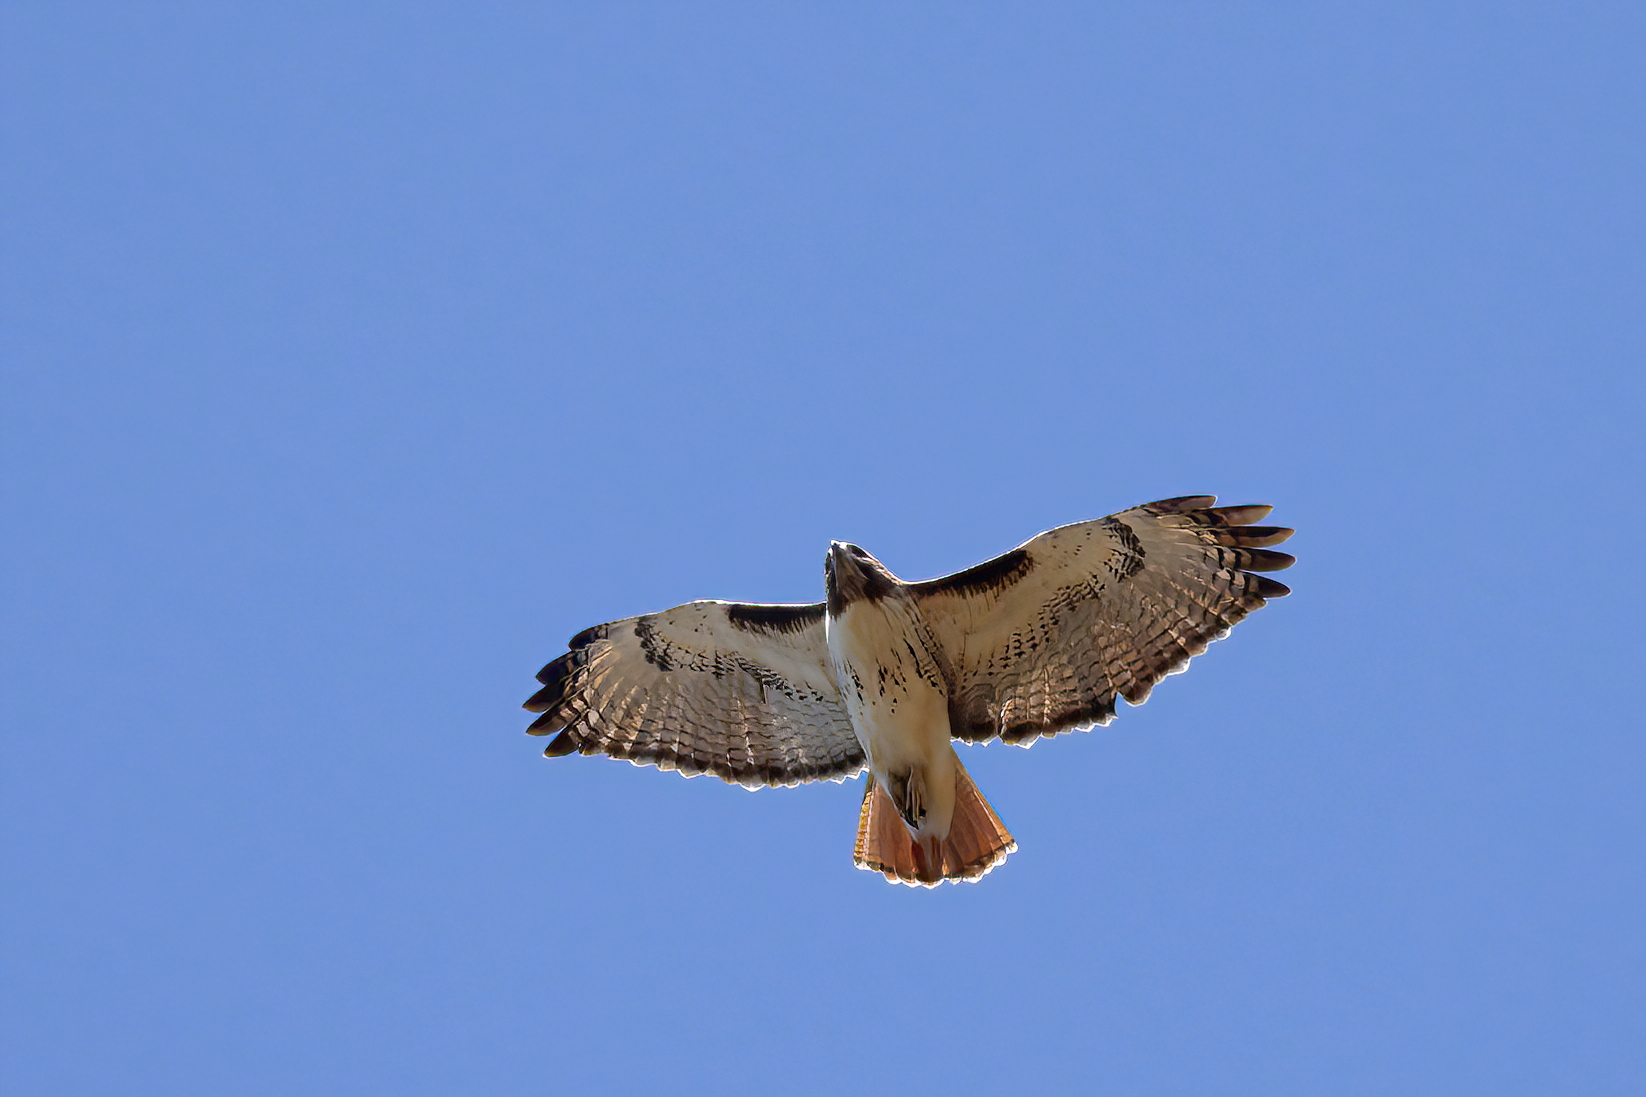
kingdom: Animalia
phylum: Chordata
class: Aves
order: Accipitriformes
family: Accipitridae
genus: Buteo
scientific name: Buteo jamaicensis
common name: Red-tailed hawk
